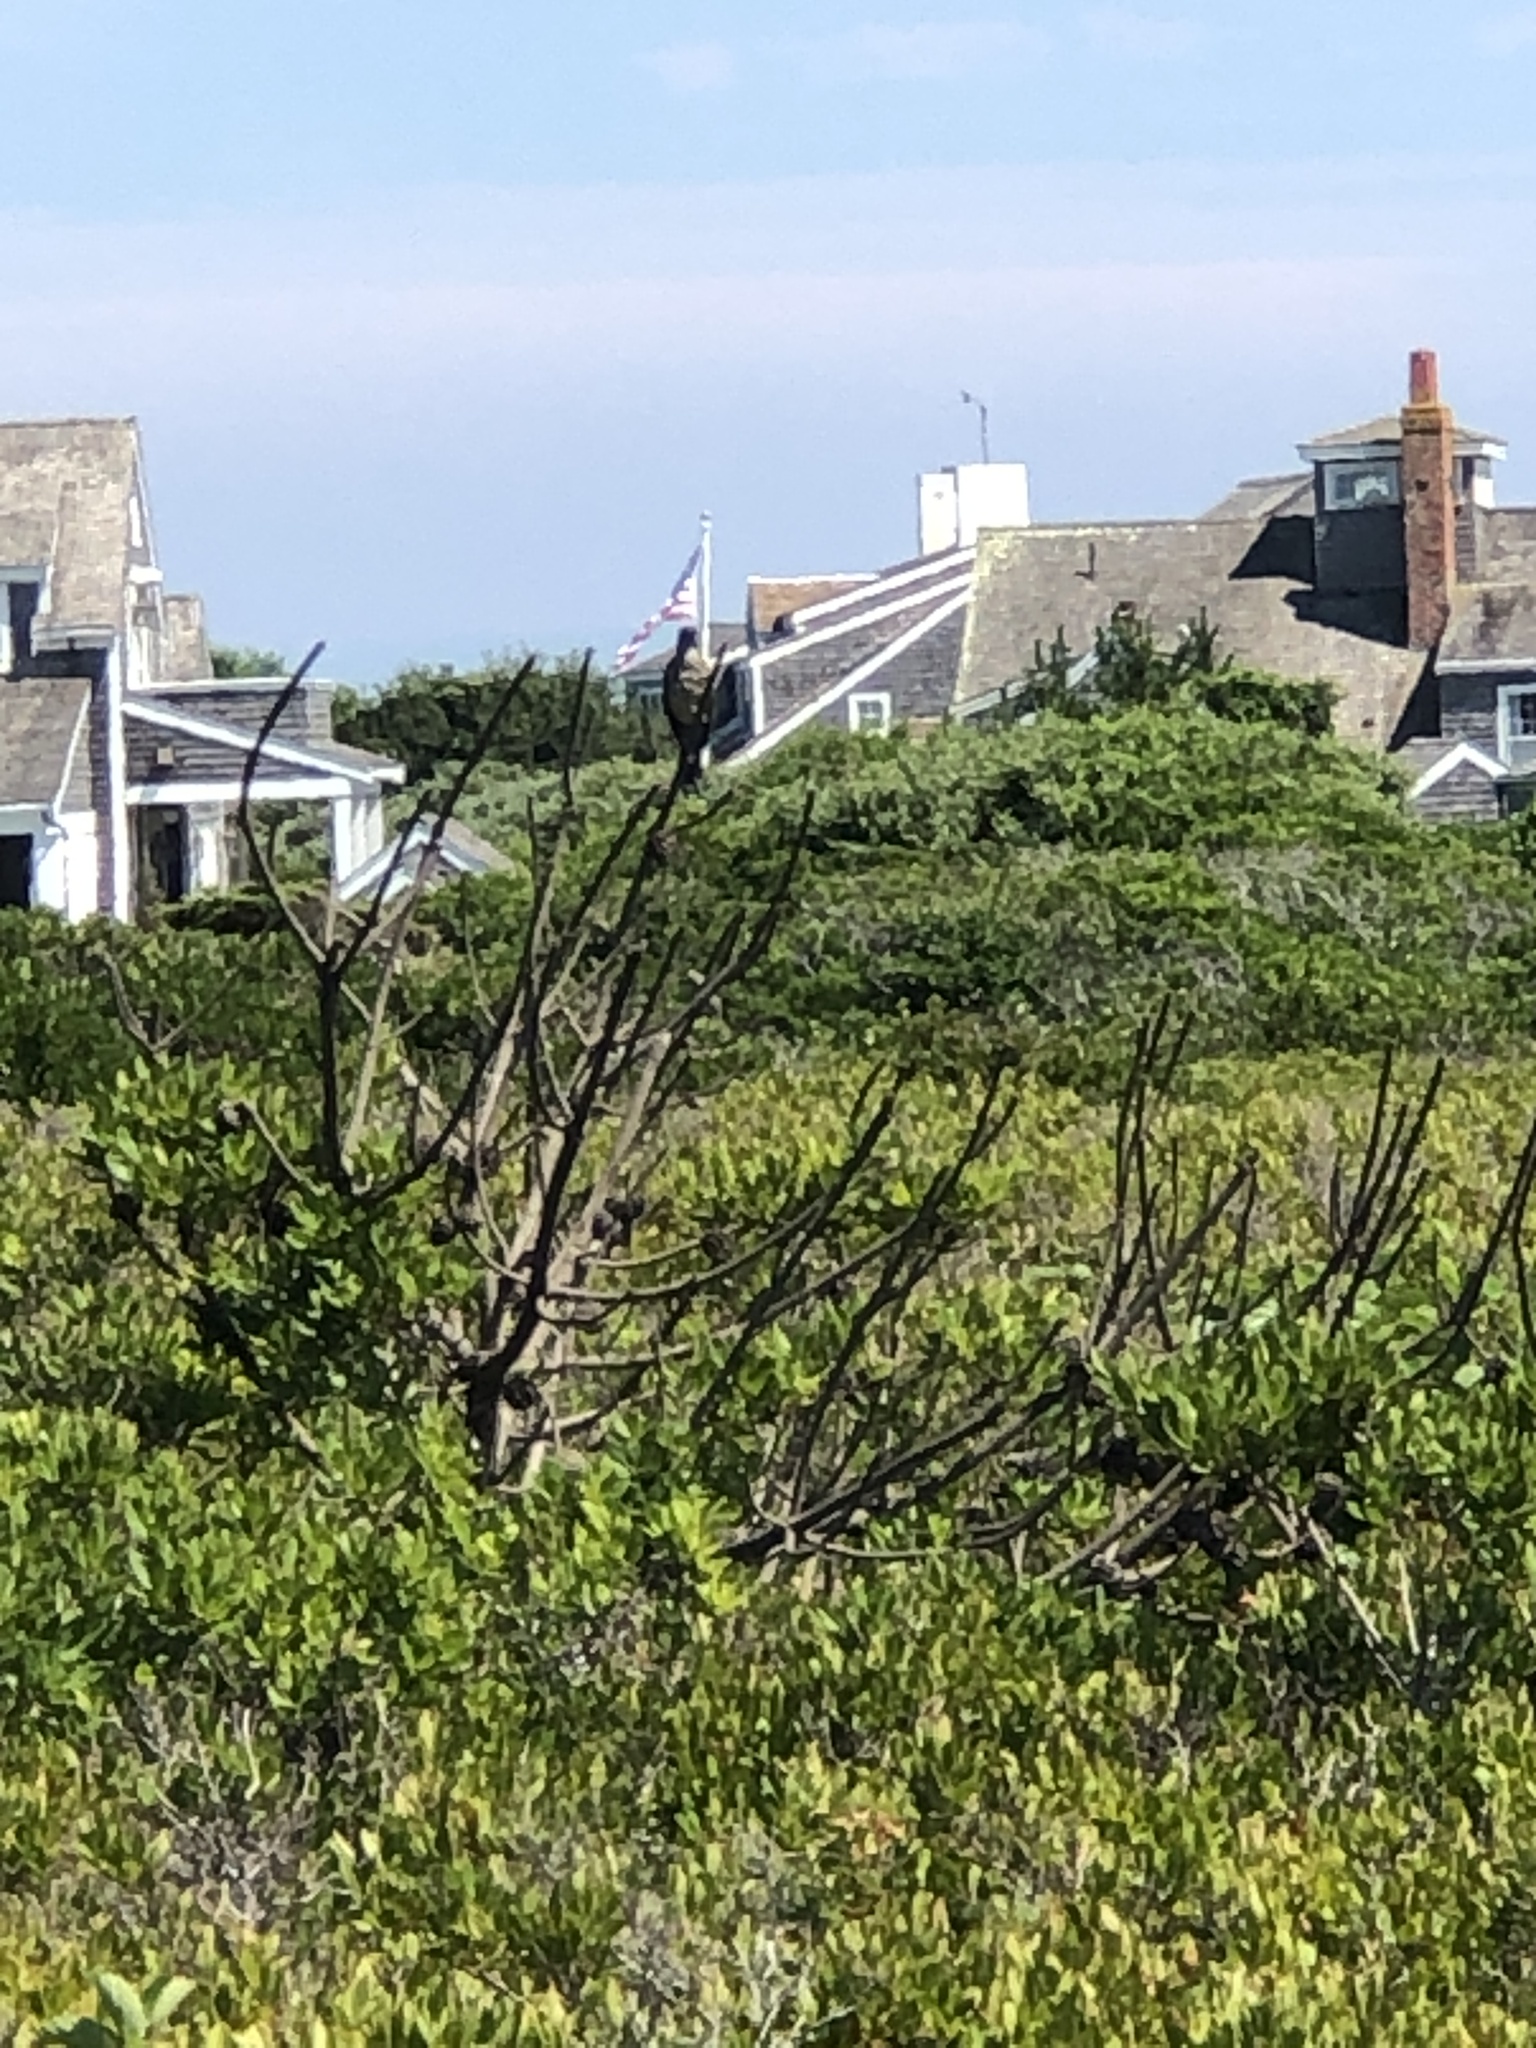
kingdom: Animalia
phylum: Chordata
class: Aves
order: Passeriformes
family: Turdidae
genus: Turdus
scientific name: Turdus migratorius
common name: American robin
